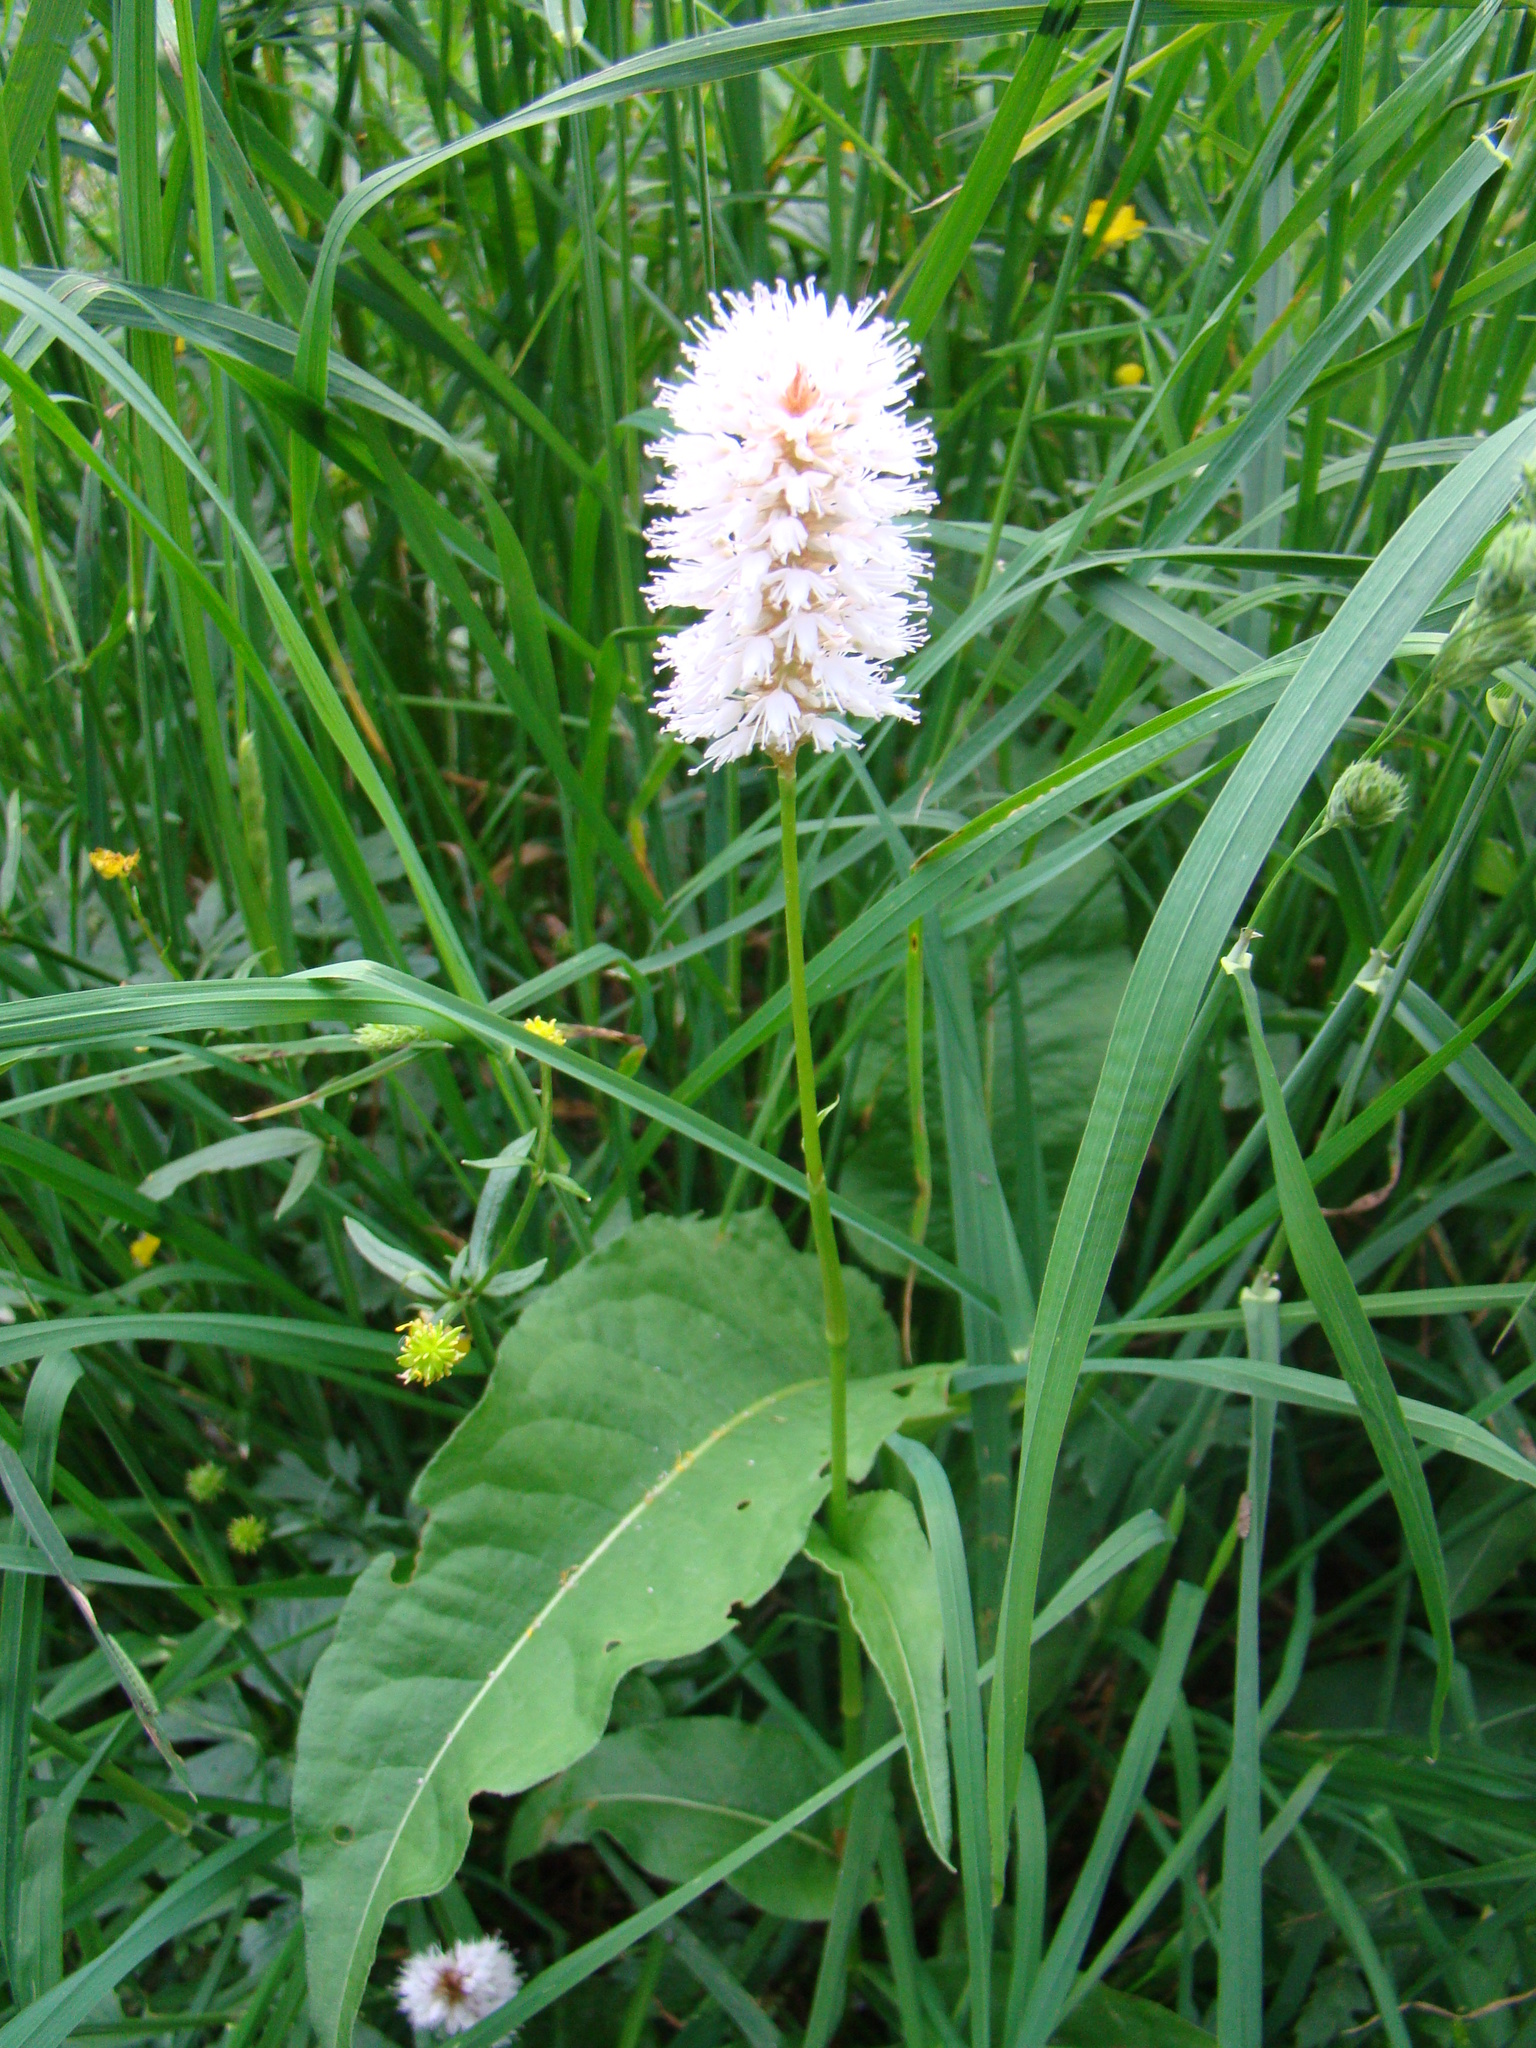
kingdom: Plantae
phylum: Tracheophyta
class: Magnoliopsida
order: Caryophyllales
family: Polygonaceae
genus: Bistorta
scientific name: Bistorta officinalis
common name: Common bistort
